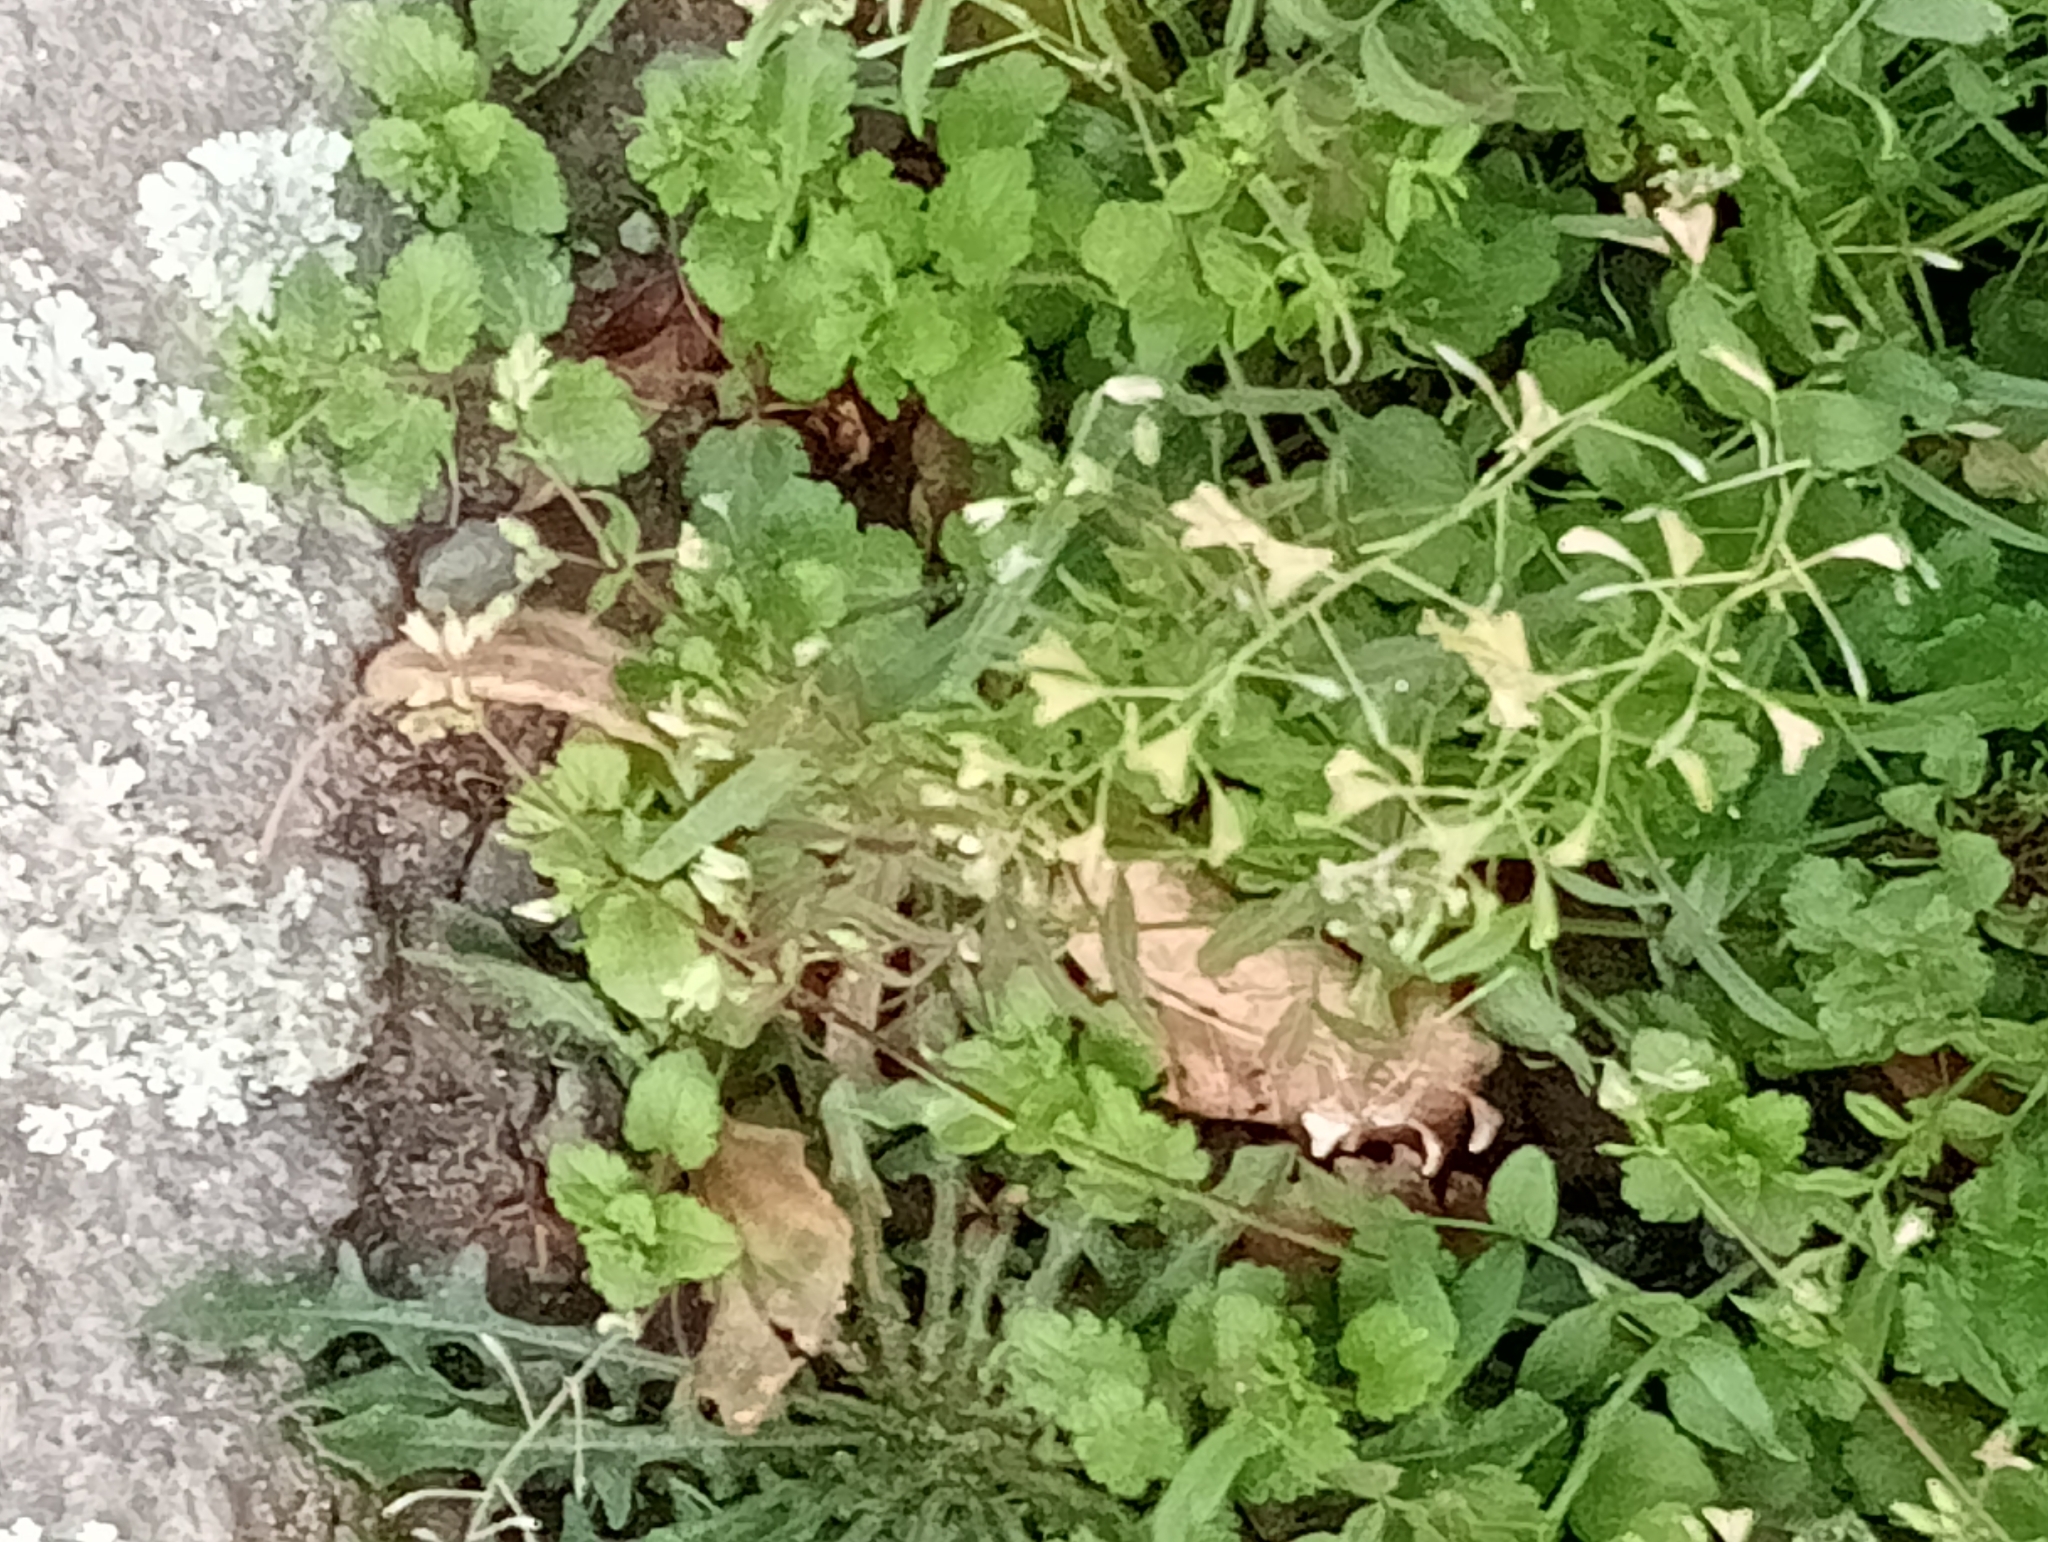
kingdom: Plantae
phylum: Tracheophyta
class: Magnoliopsida
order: Brassicales
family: Brassicaceae
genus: Capsella
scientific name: Capsella bursa-pastoris
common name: Shepherd's purse
